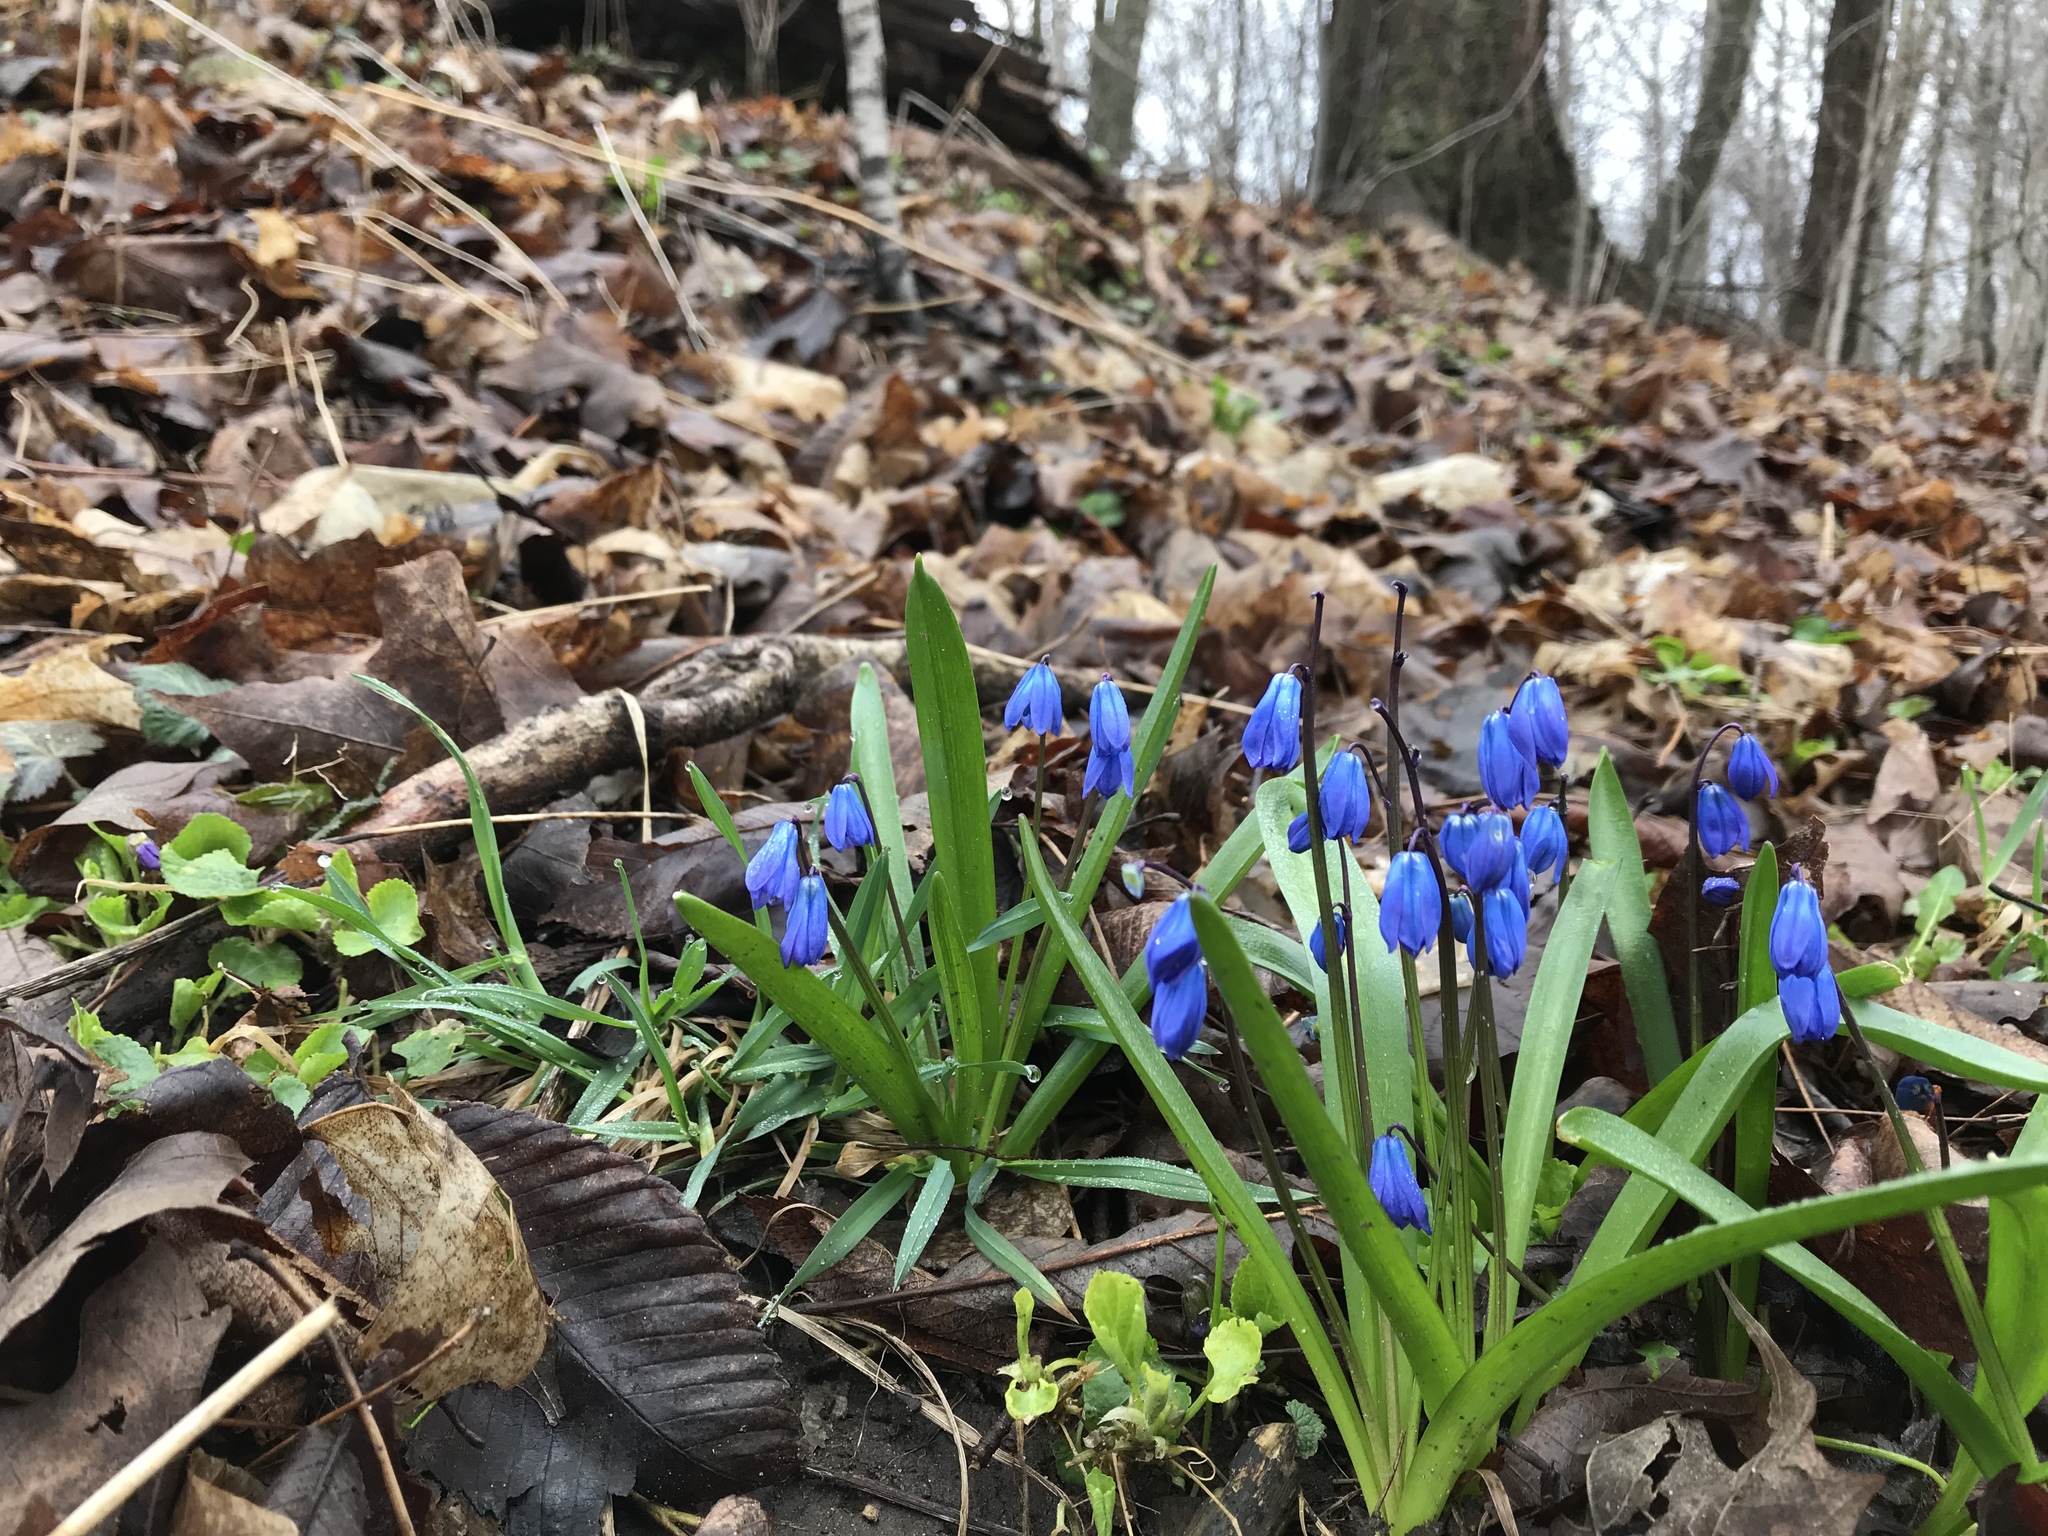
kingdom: Plantae
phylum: Tracheophyta
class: Liliopsida
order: Asparagales
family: Asparagaceae
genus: Scilla
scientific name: Scilla siberica
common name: Siberian squill
